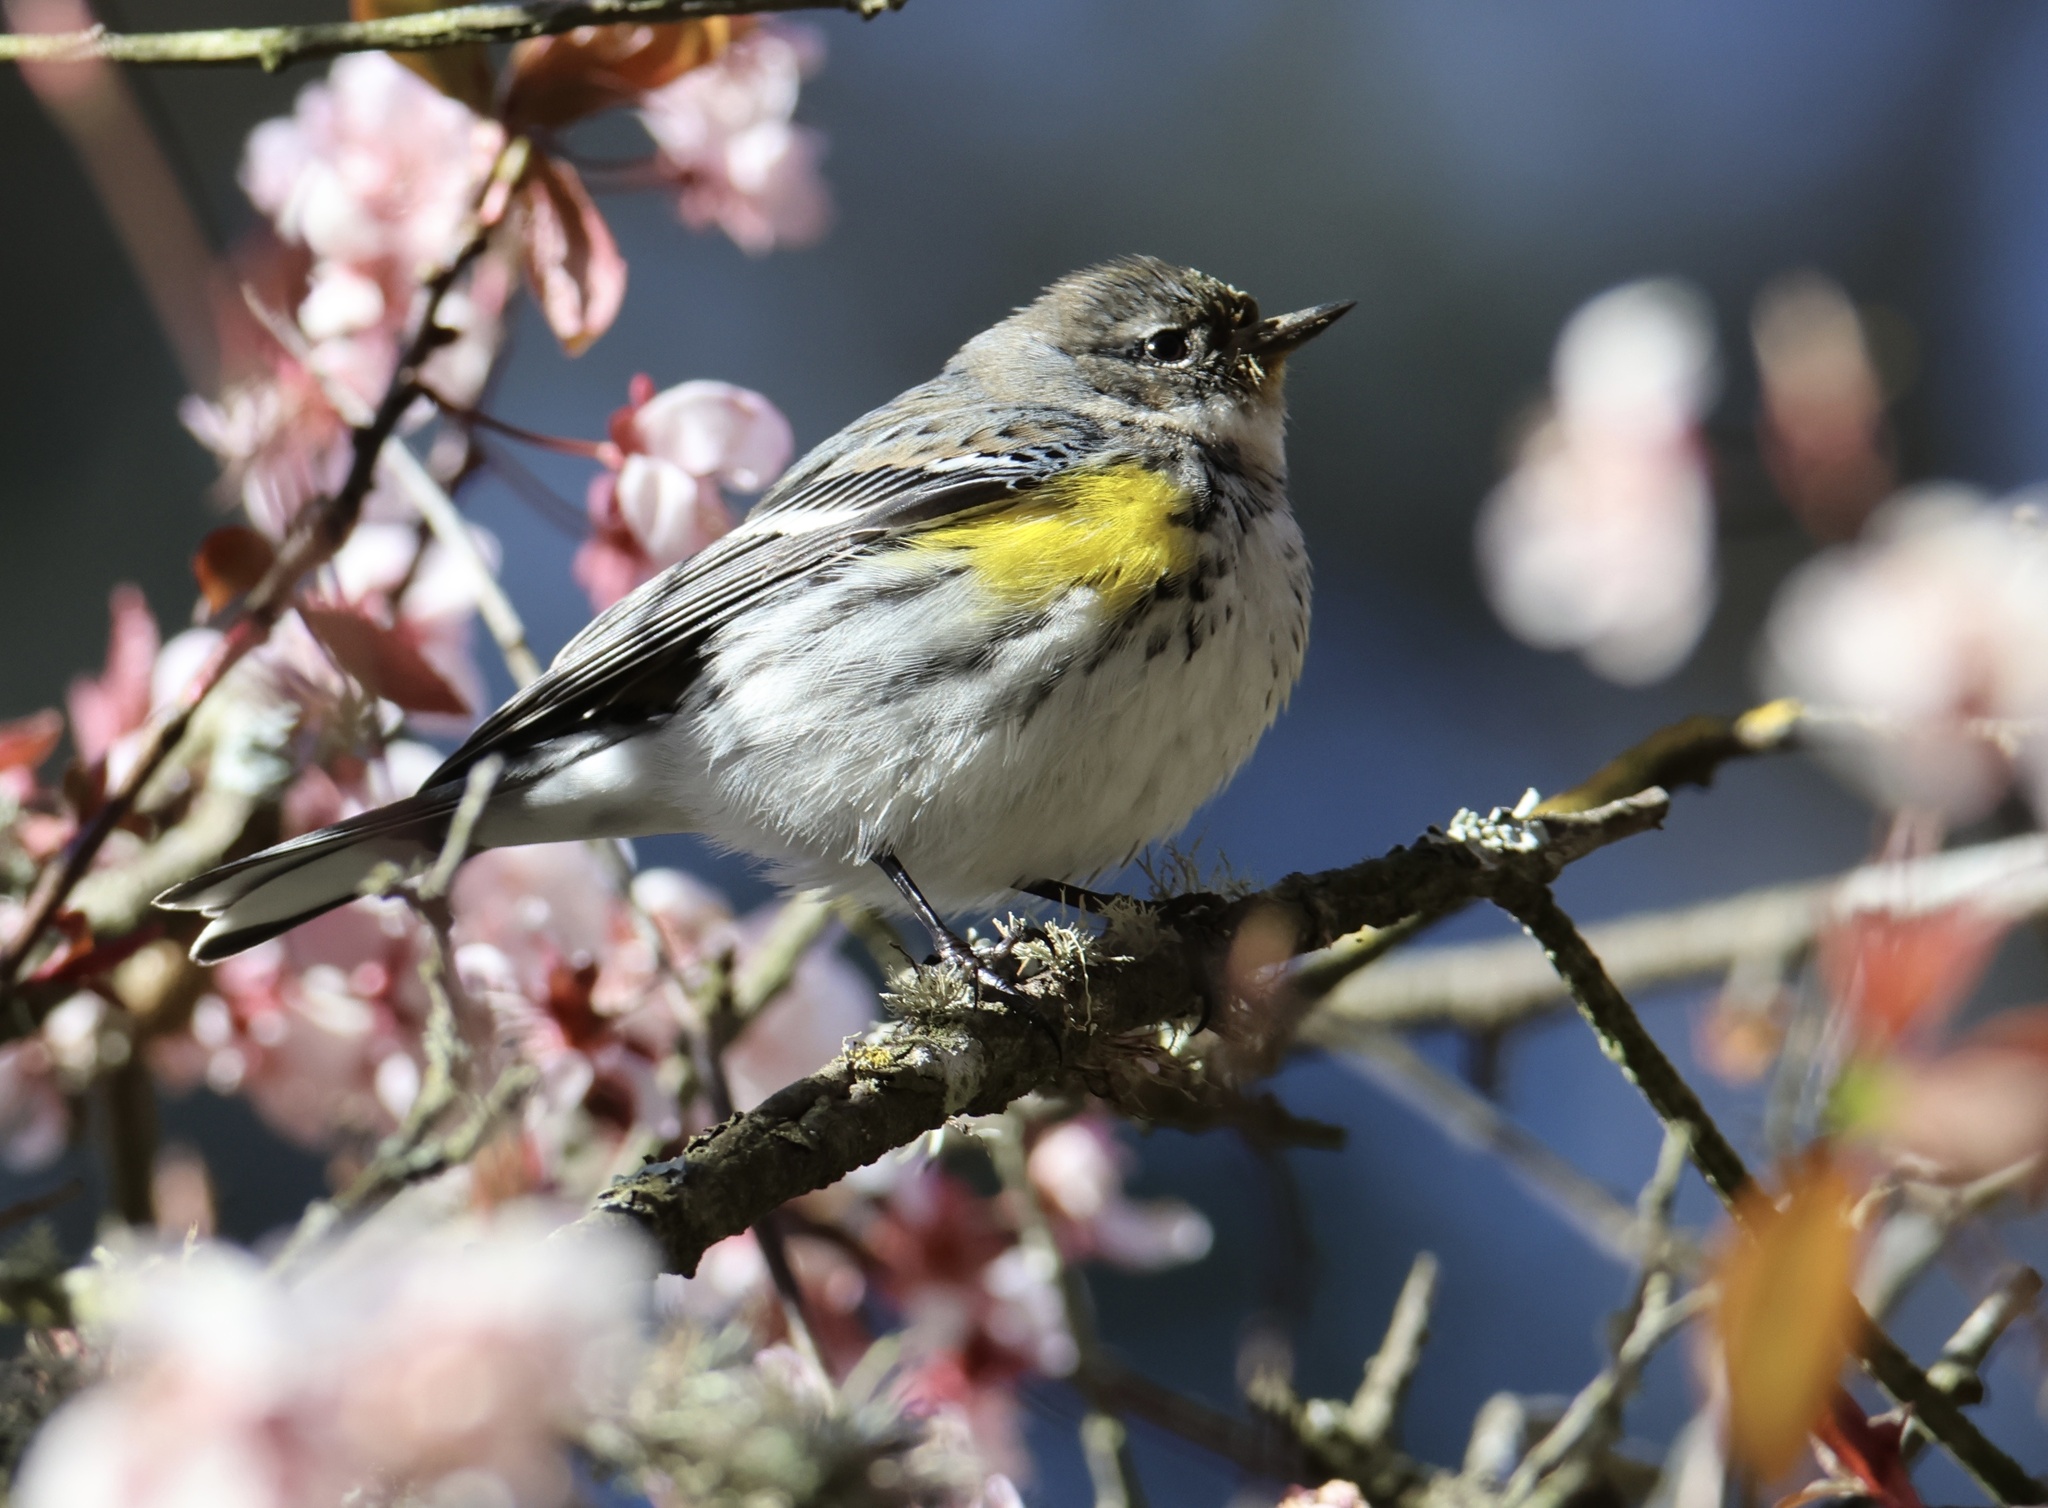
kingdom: Animalia
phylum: Chordata
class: Aves
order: Passeriformes
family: Parulidae
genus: Setophaga
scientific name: Setophaga coronata
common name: Myrtle warbler
